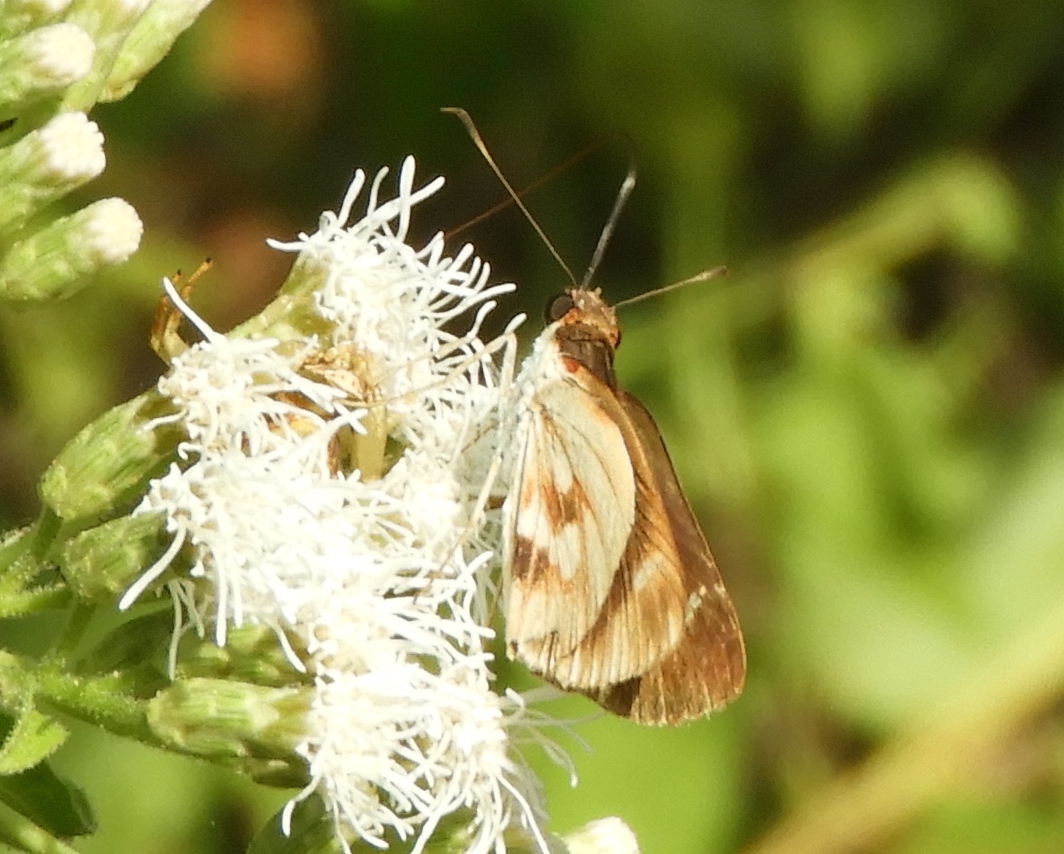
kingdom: Animalia
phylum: Arthropoda
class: Insecta
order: Lepidoptera
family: Hesperiidae
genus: Troyus
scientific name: Troyus fantasos
